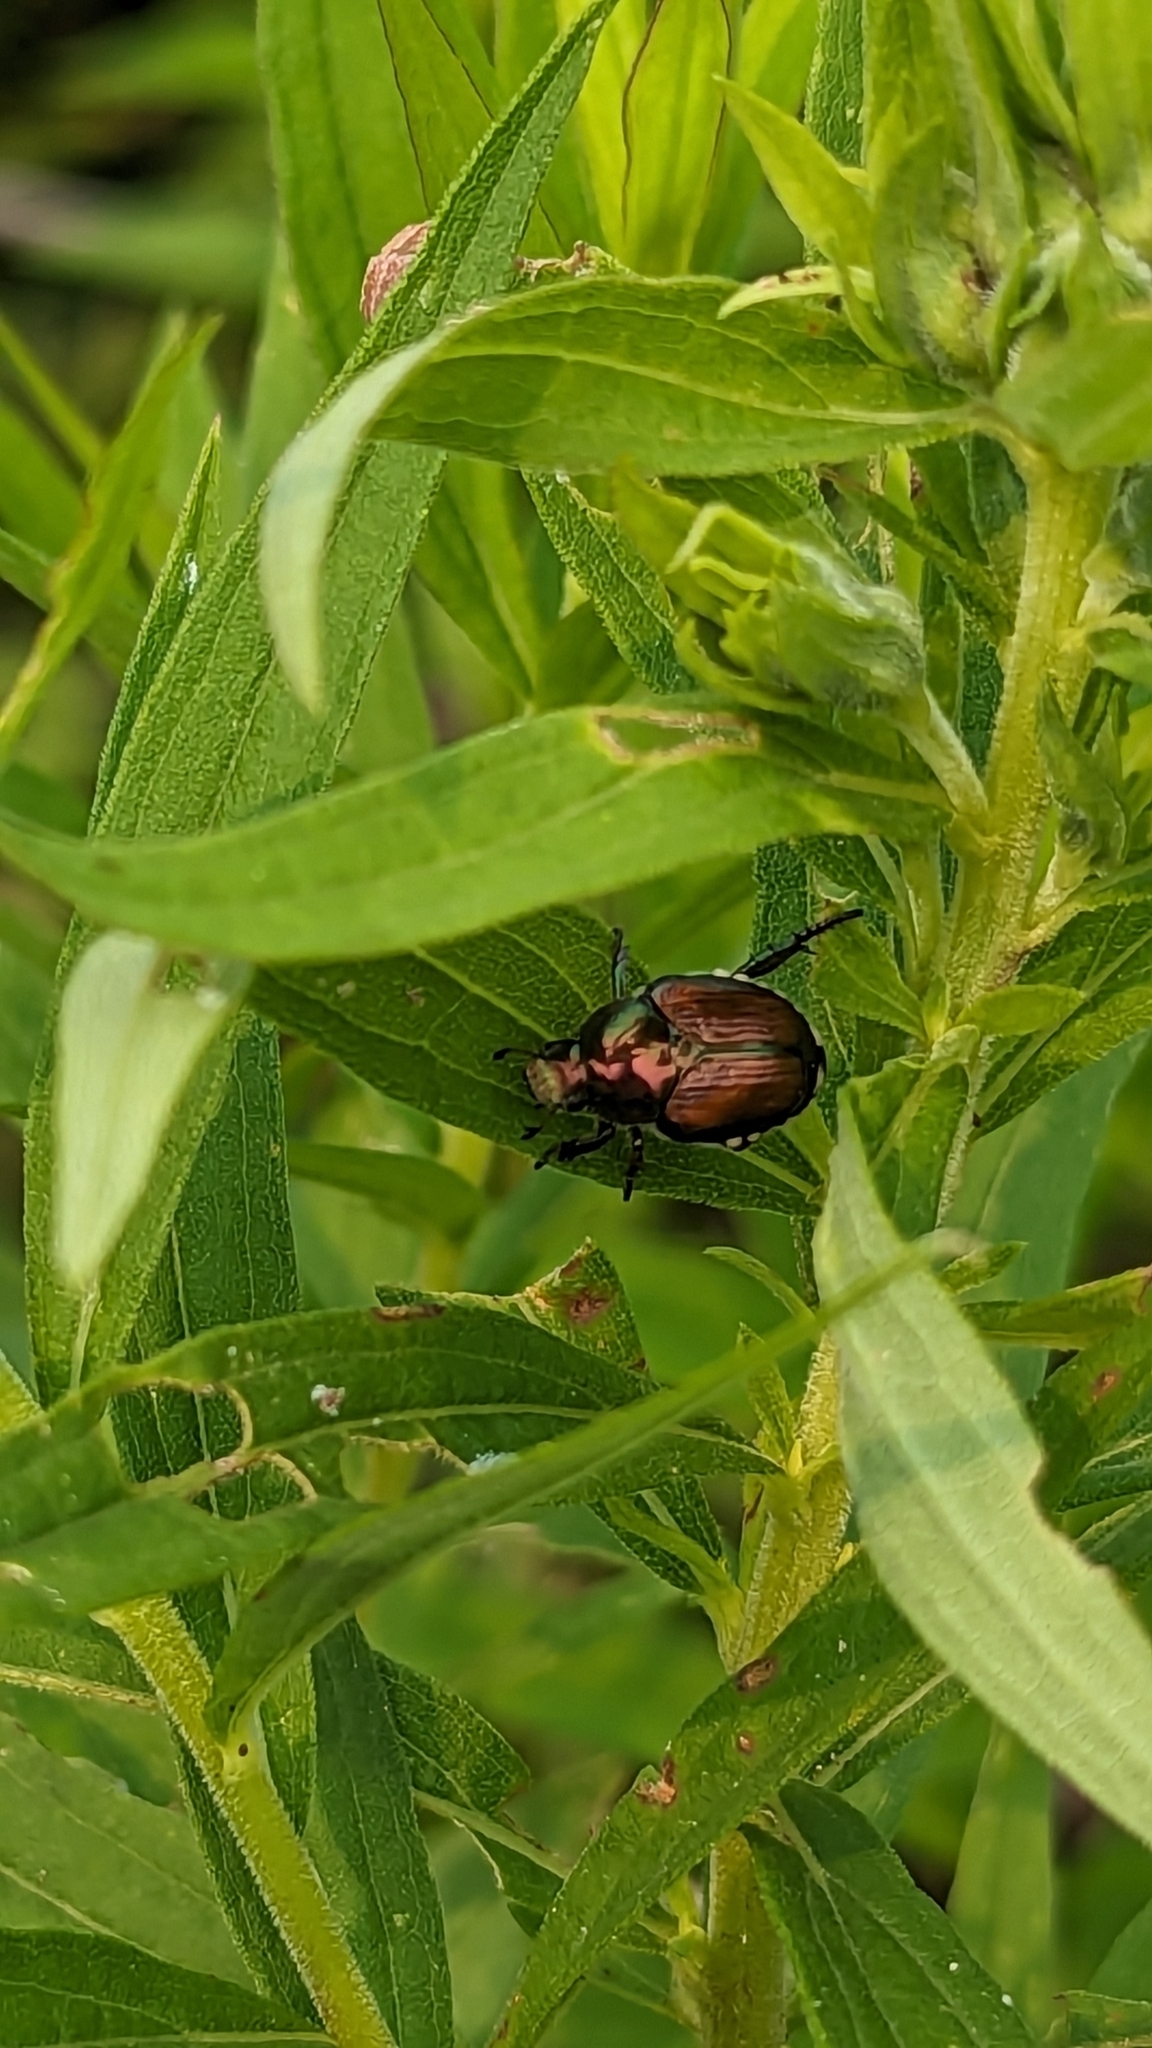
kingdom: Animalia
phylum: Arthropoda
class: Insecta
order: Coleoptera
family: Scarabaeidae
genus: Popillia
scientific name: Popillia japonica
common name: Japanese beetle
